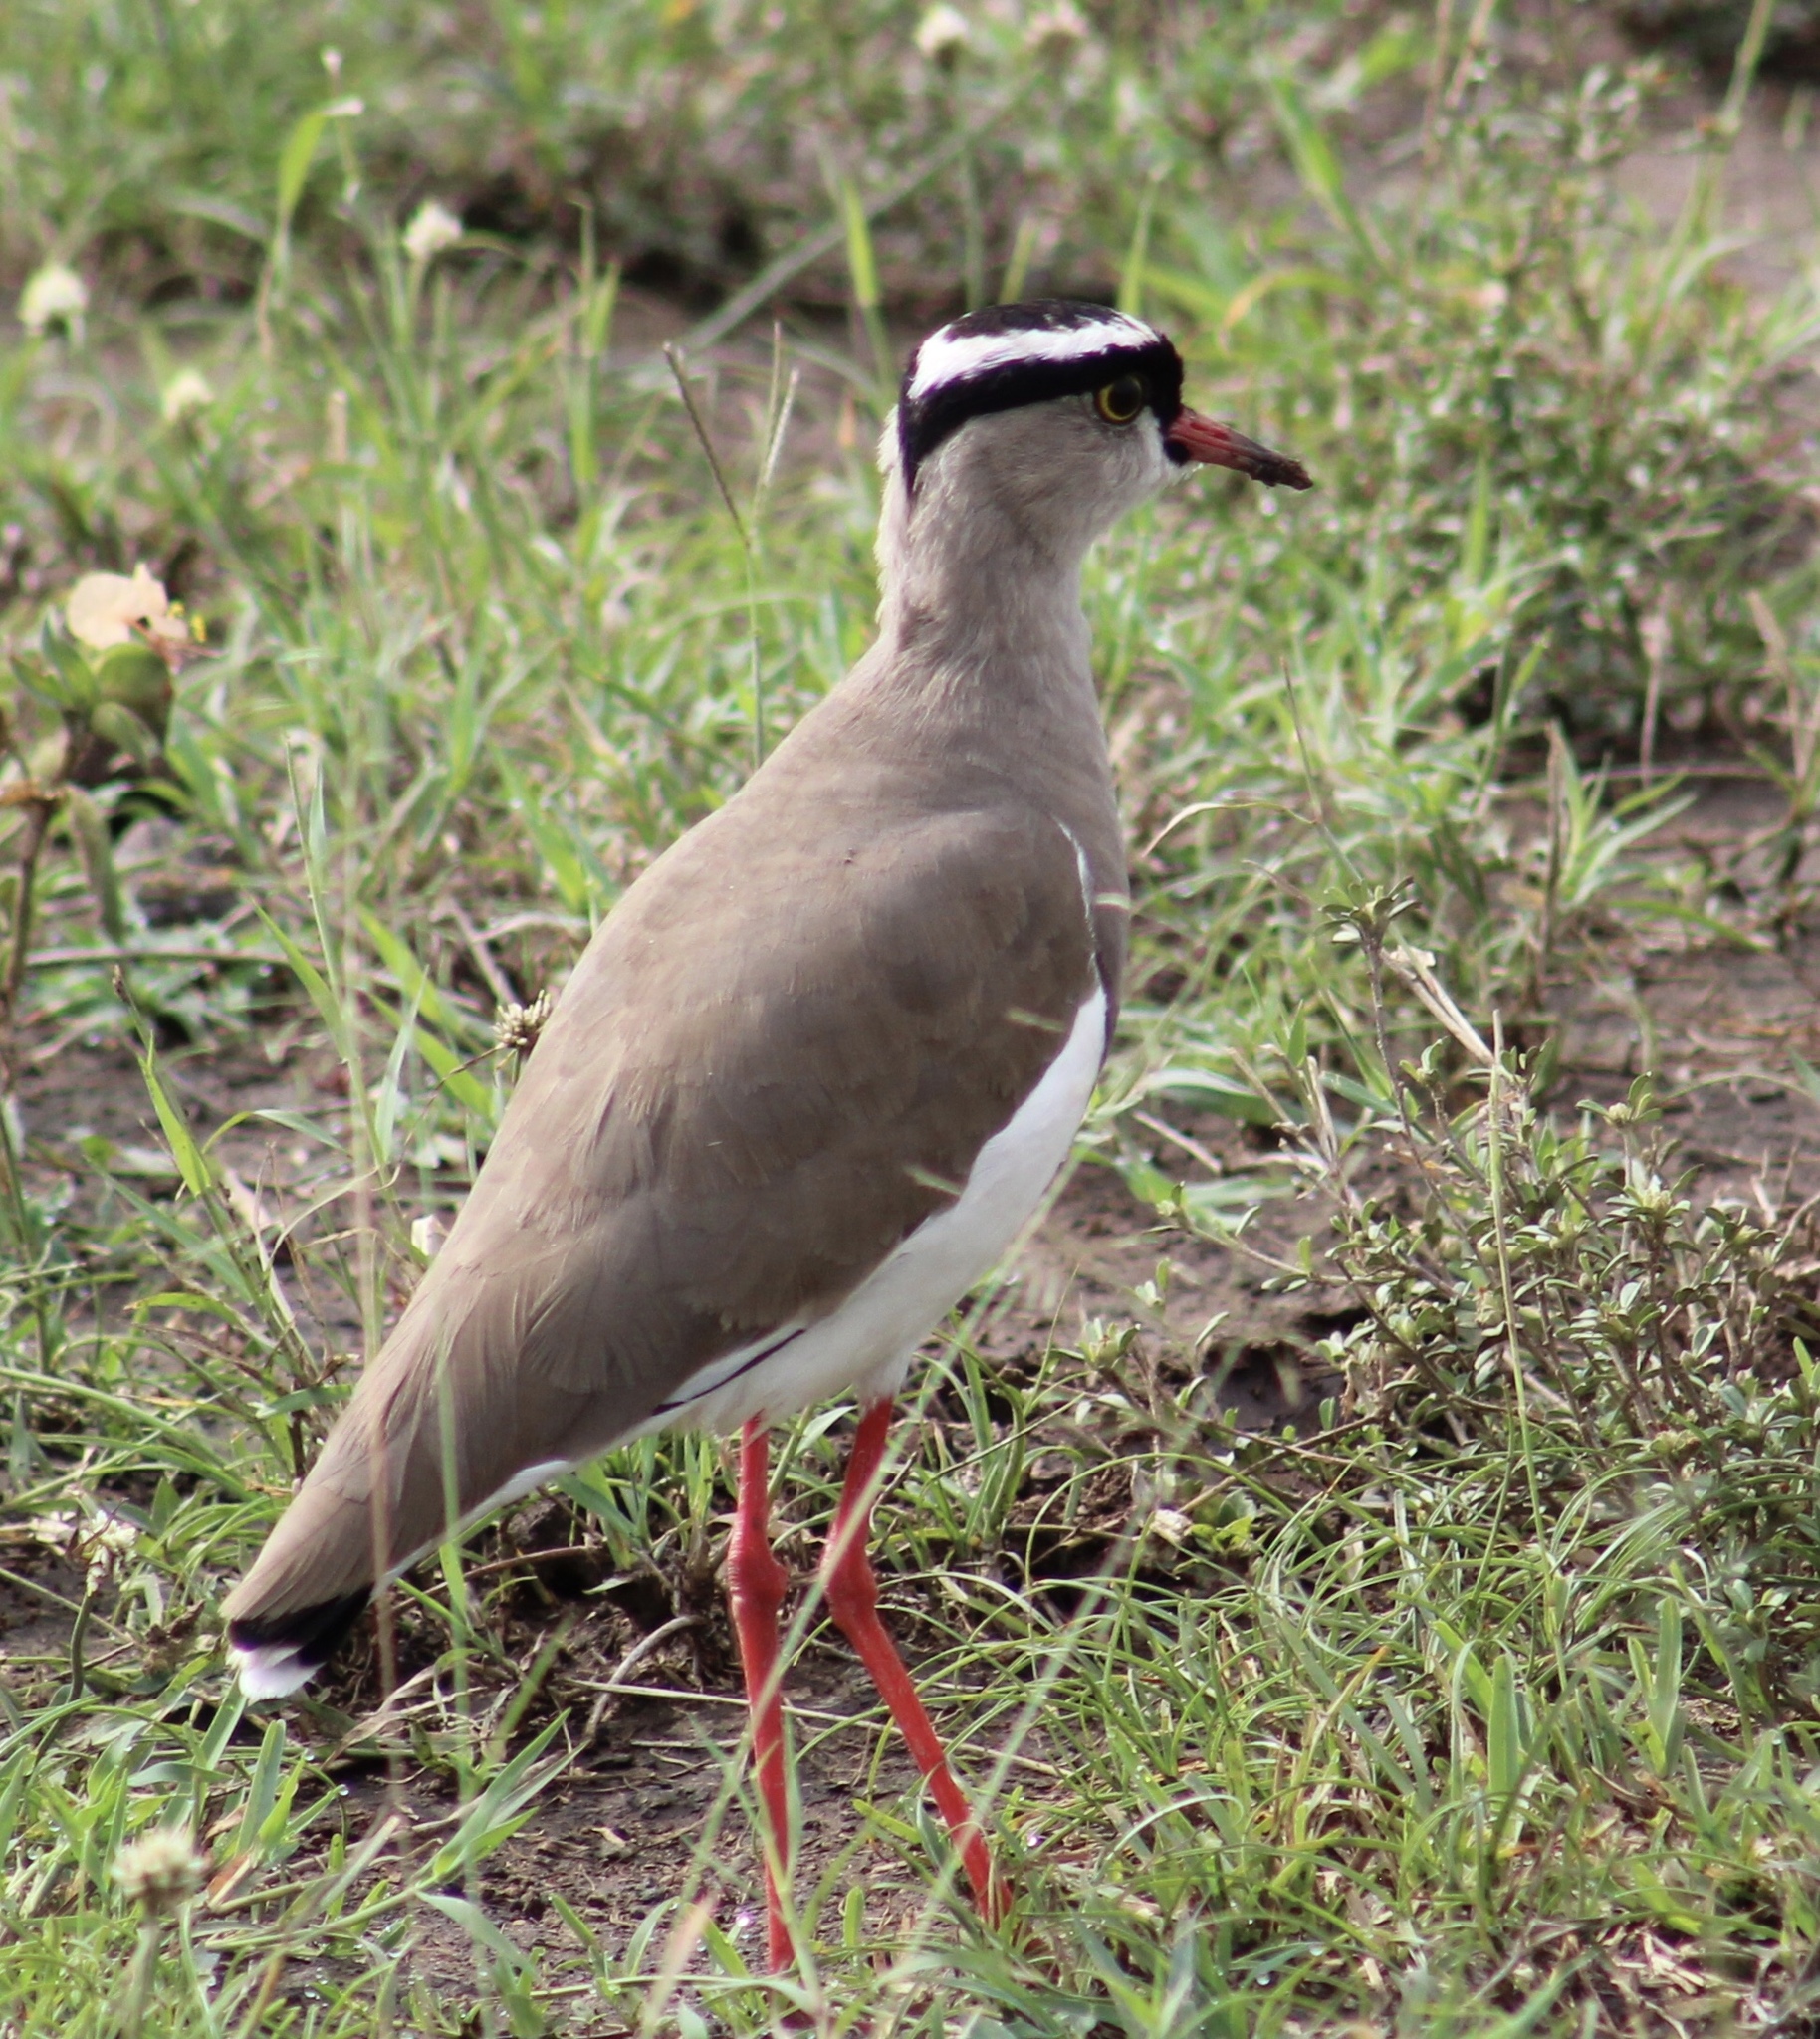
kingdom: Animalia
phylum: Chordata
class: Aves
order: Charadriiformes
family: Charadriidae
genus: Vanellus
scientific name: Vanellus coronatus
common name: Crowned lapwing
